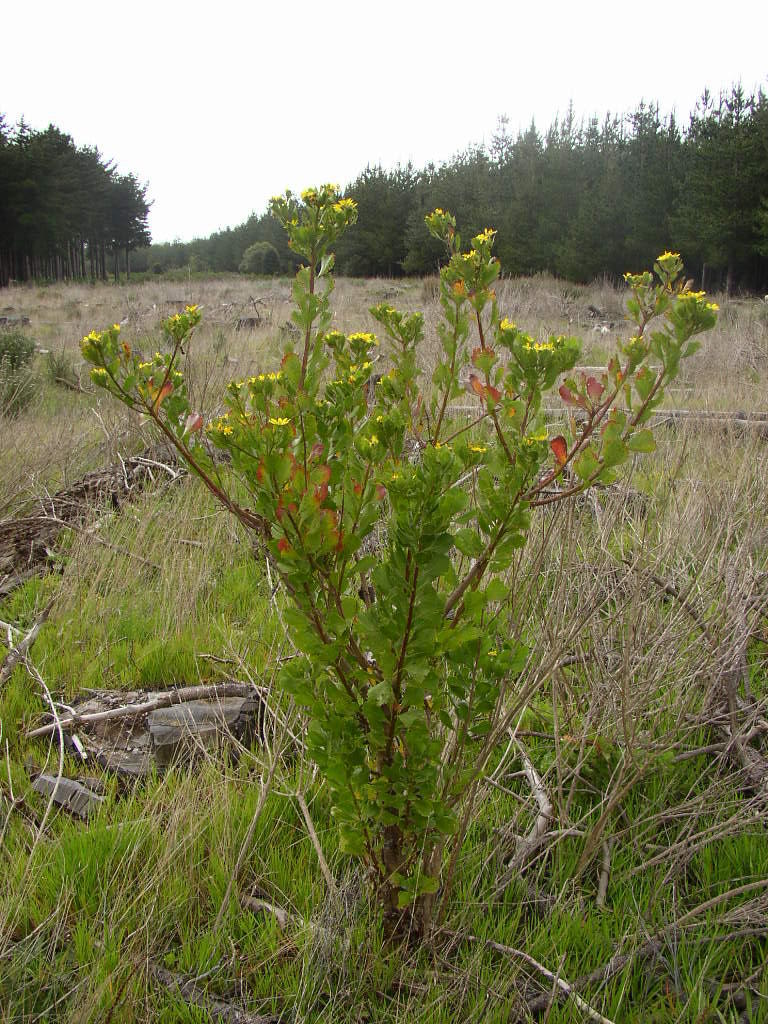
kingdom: Plantae
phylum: Tracheophyta
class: Magnoliopsida
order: Asterales
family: Asteraceae
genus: Osteospermum
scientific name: Osteospermum moniliferum
